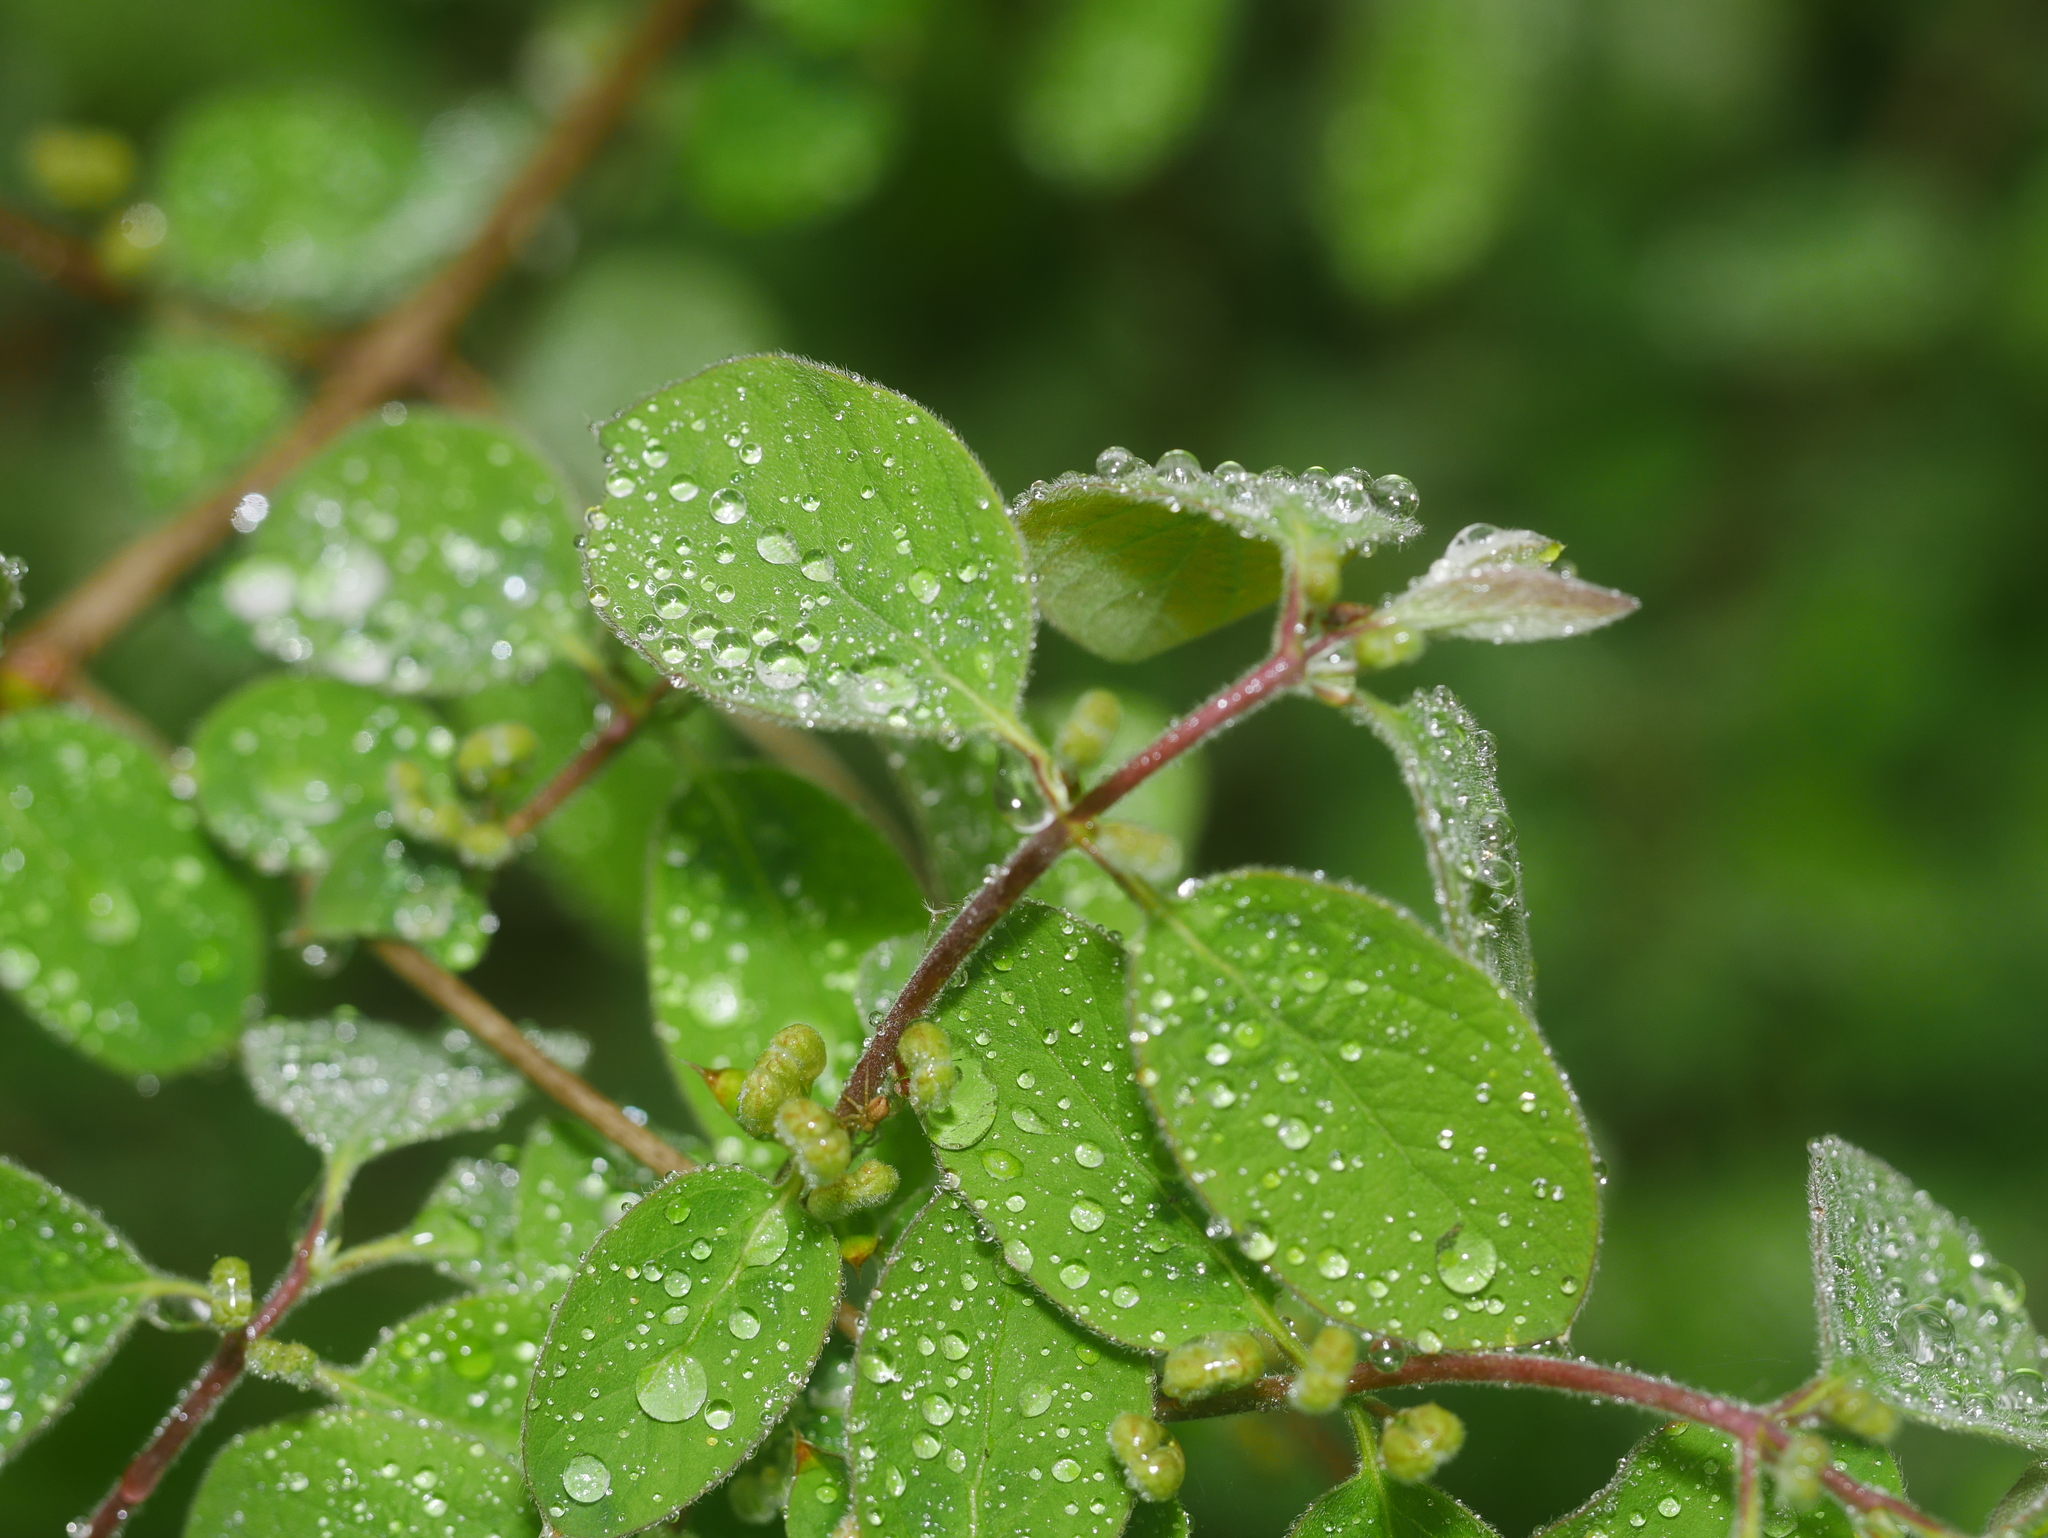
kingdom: Plantae
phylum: Tracheophyta
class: Magnoliopsida
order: Dipsacales
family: Caprifoliaceae
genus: Lonicera
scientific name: Lonicera xylosteum
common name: Fly honeysuckle
